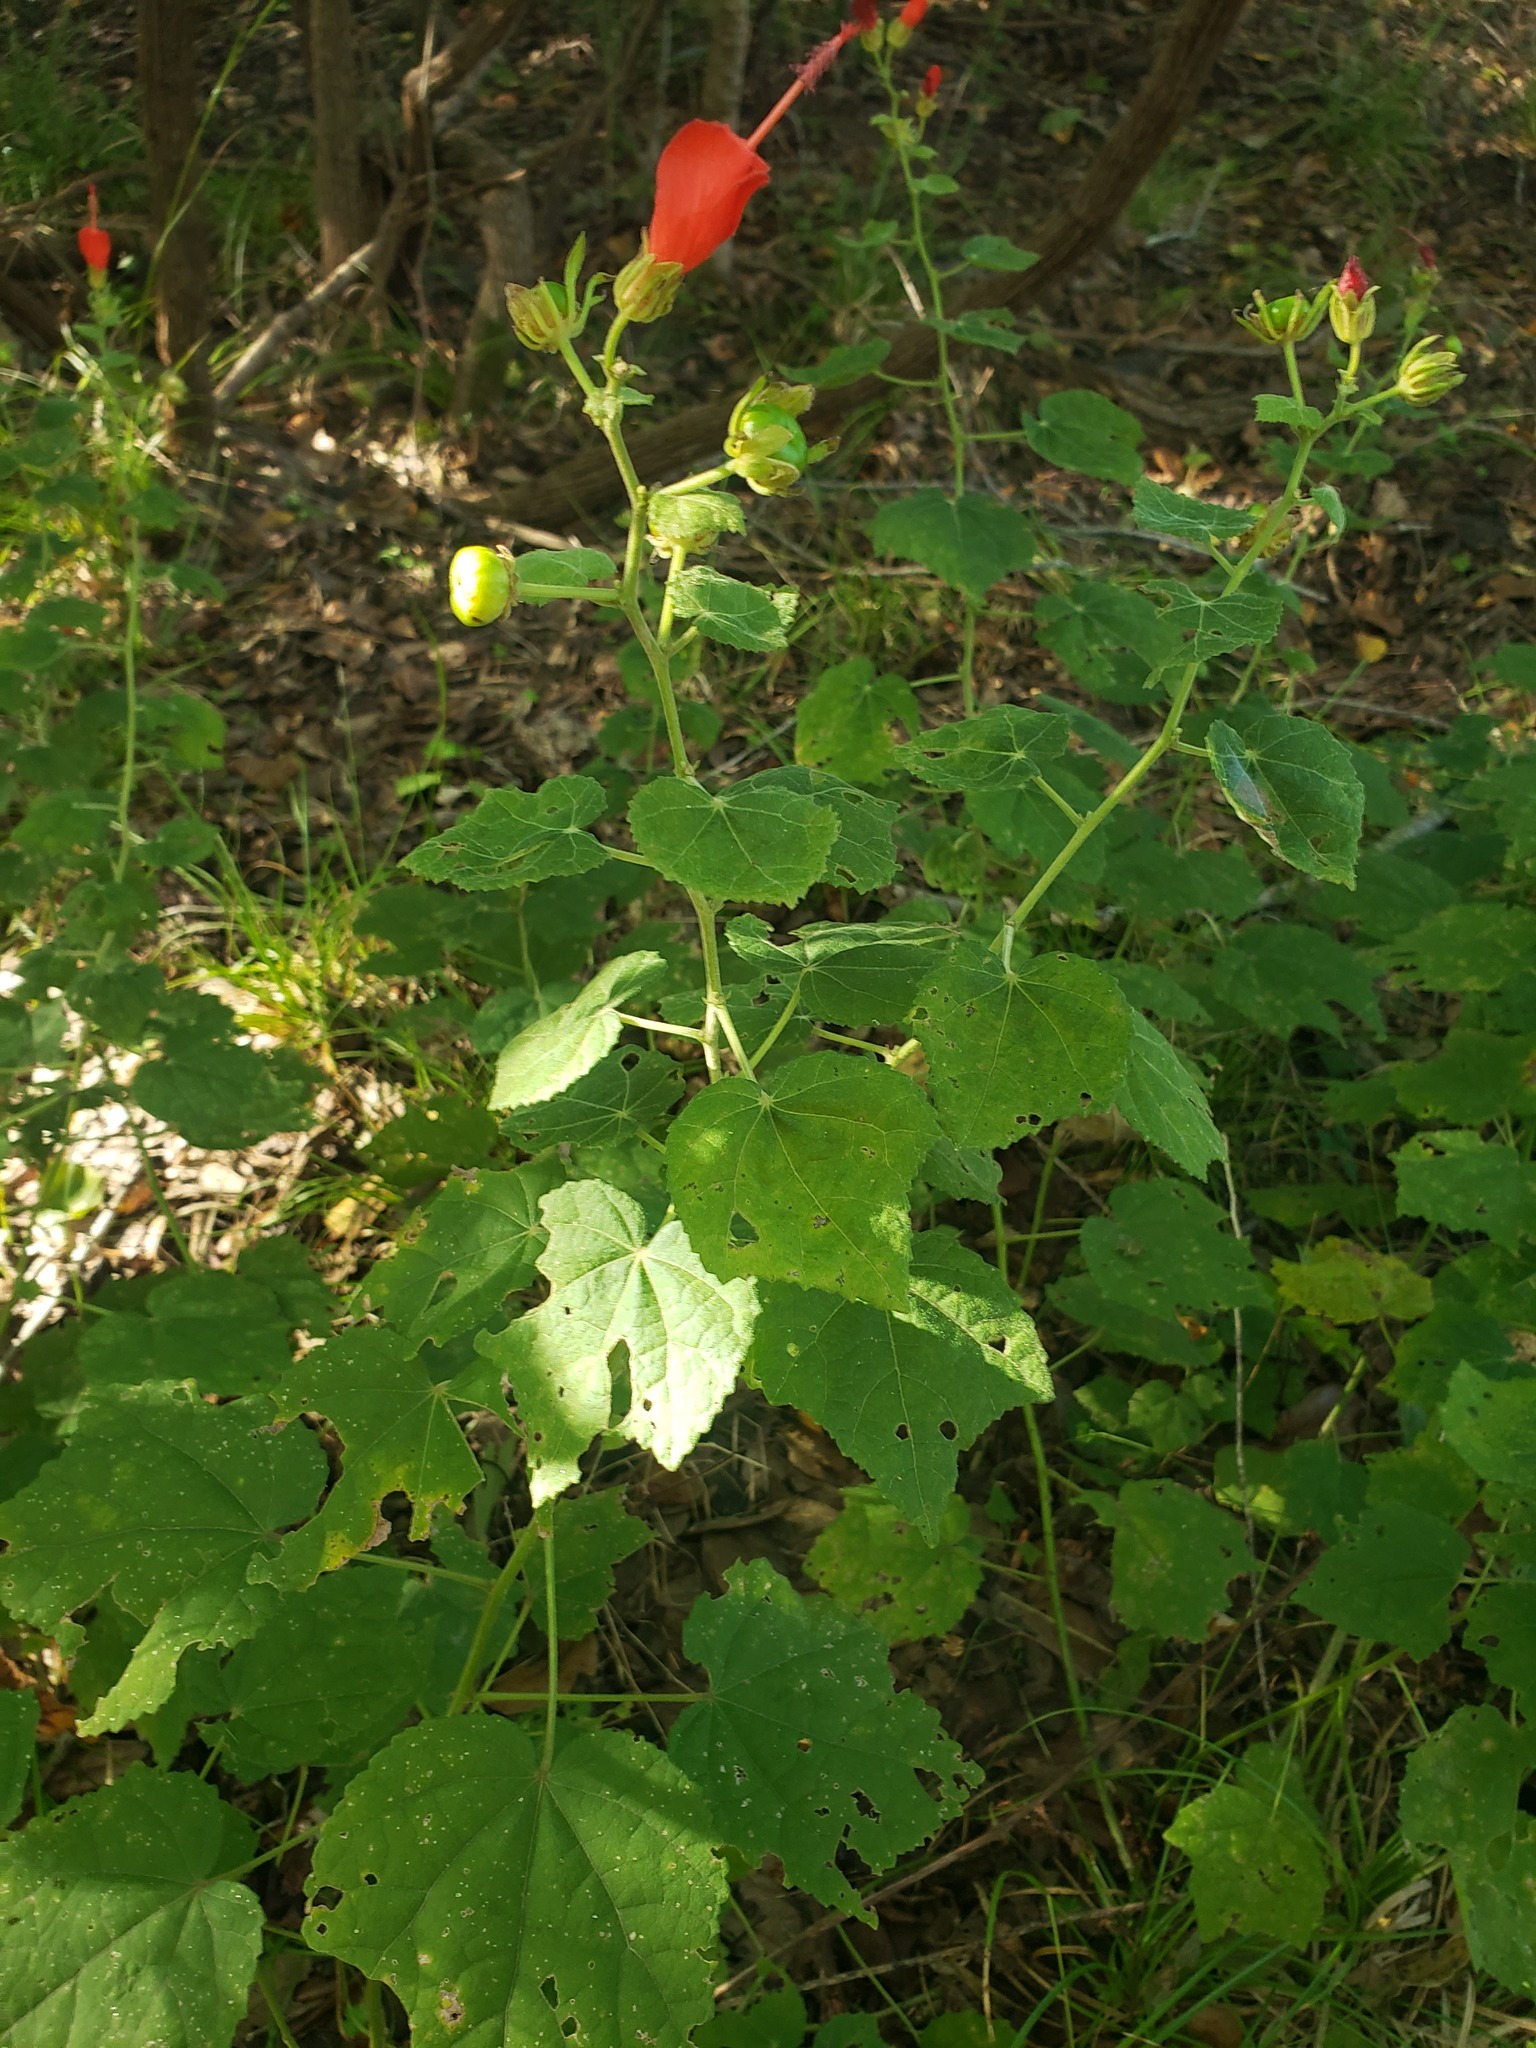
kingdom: Plantae
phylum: Tracheophyta
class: Magnoliopsida
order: Malvales
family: Malvaceae
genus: Malvaviscus
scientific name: Malvaviscus arboreus
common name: Wax mallow
